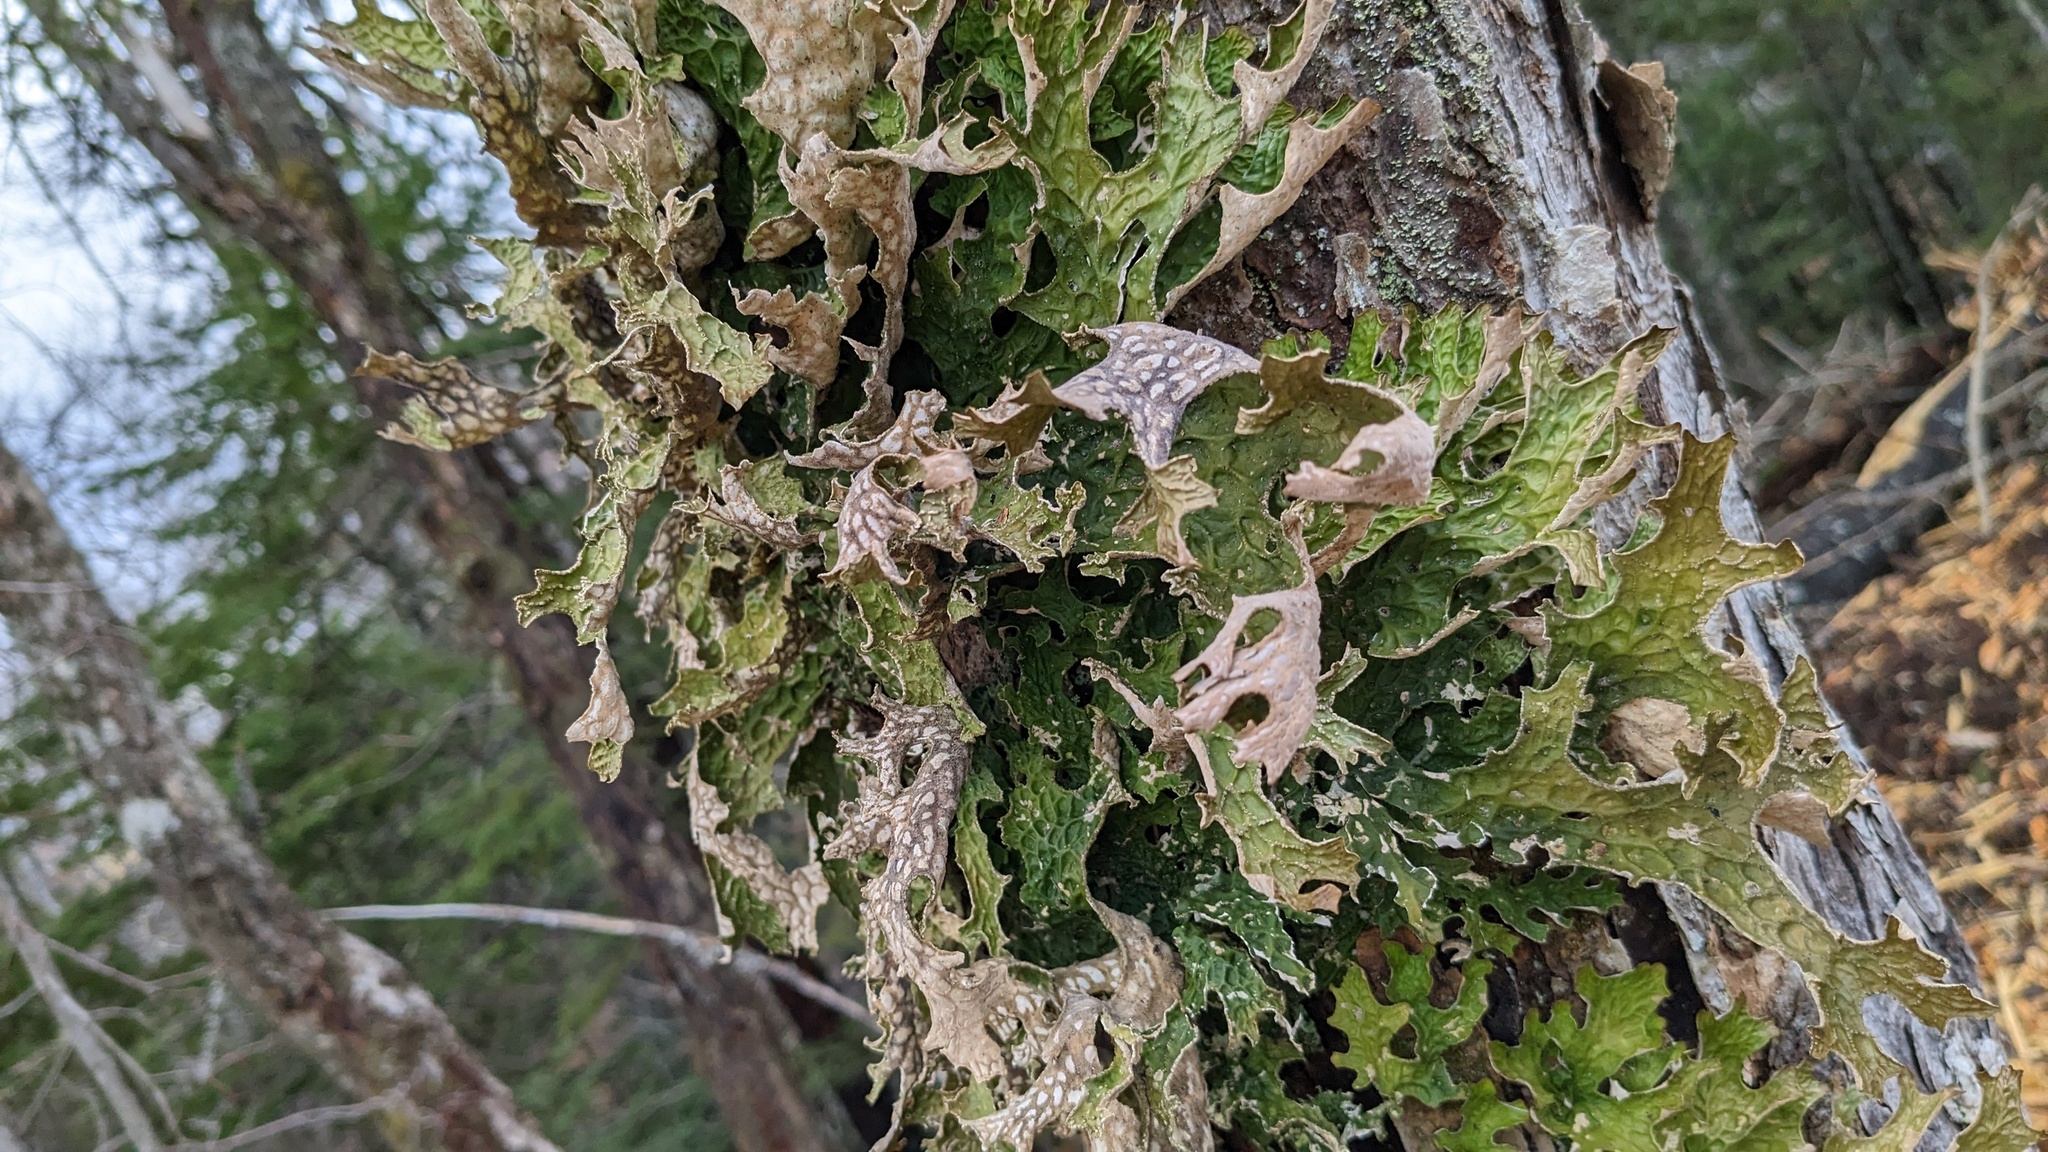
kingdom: Fungi
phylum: Ascomycota
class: Lecanoromycetes
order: Peltigerales
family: Lobariaceae
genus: Lobaria
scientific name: Lobaria pulmonaria
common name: Lungwort
